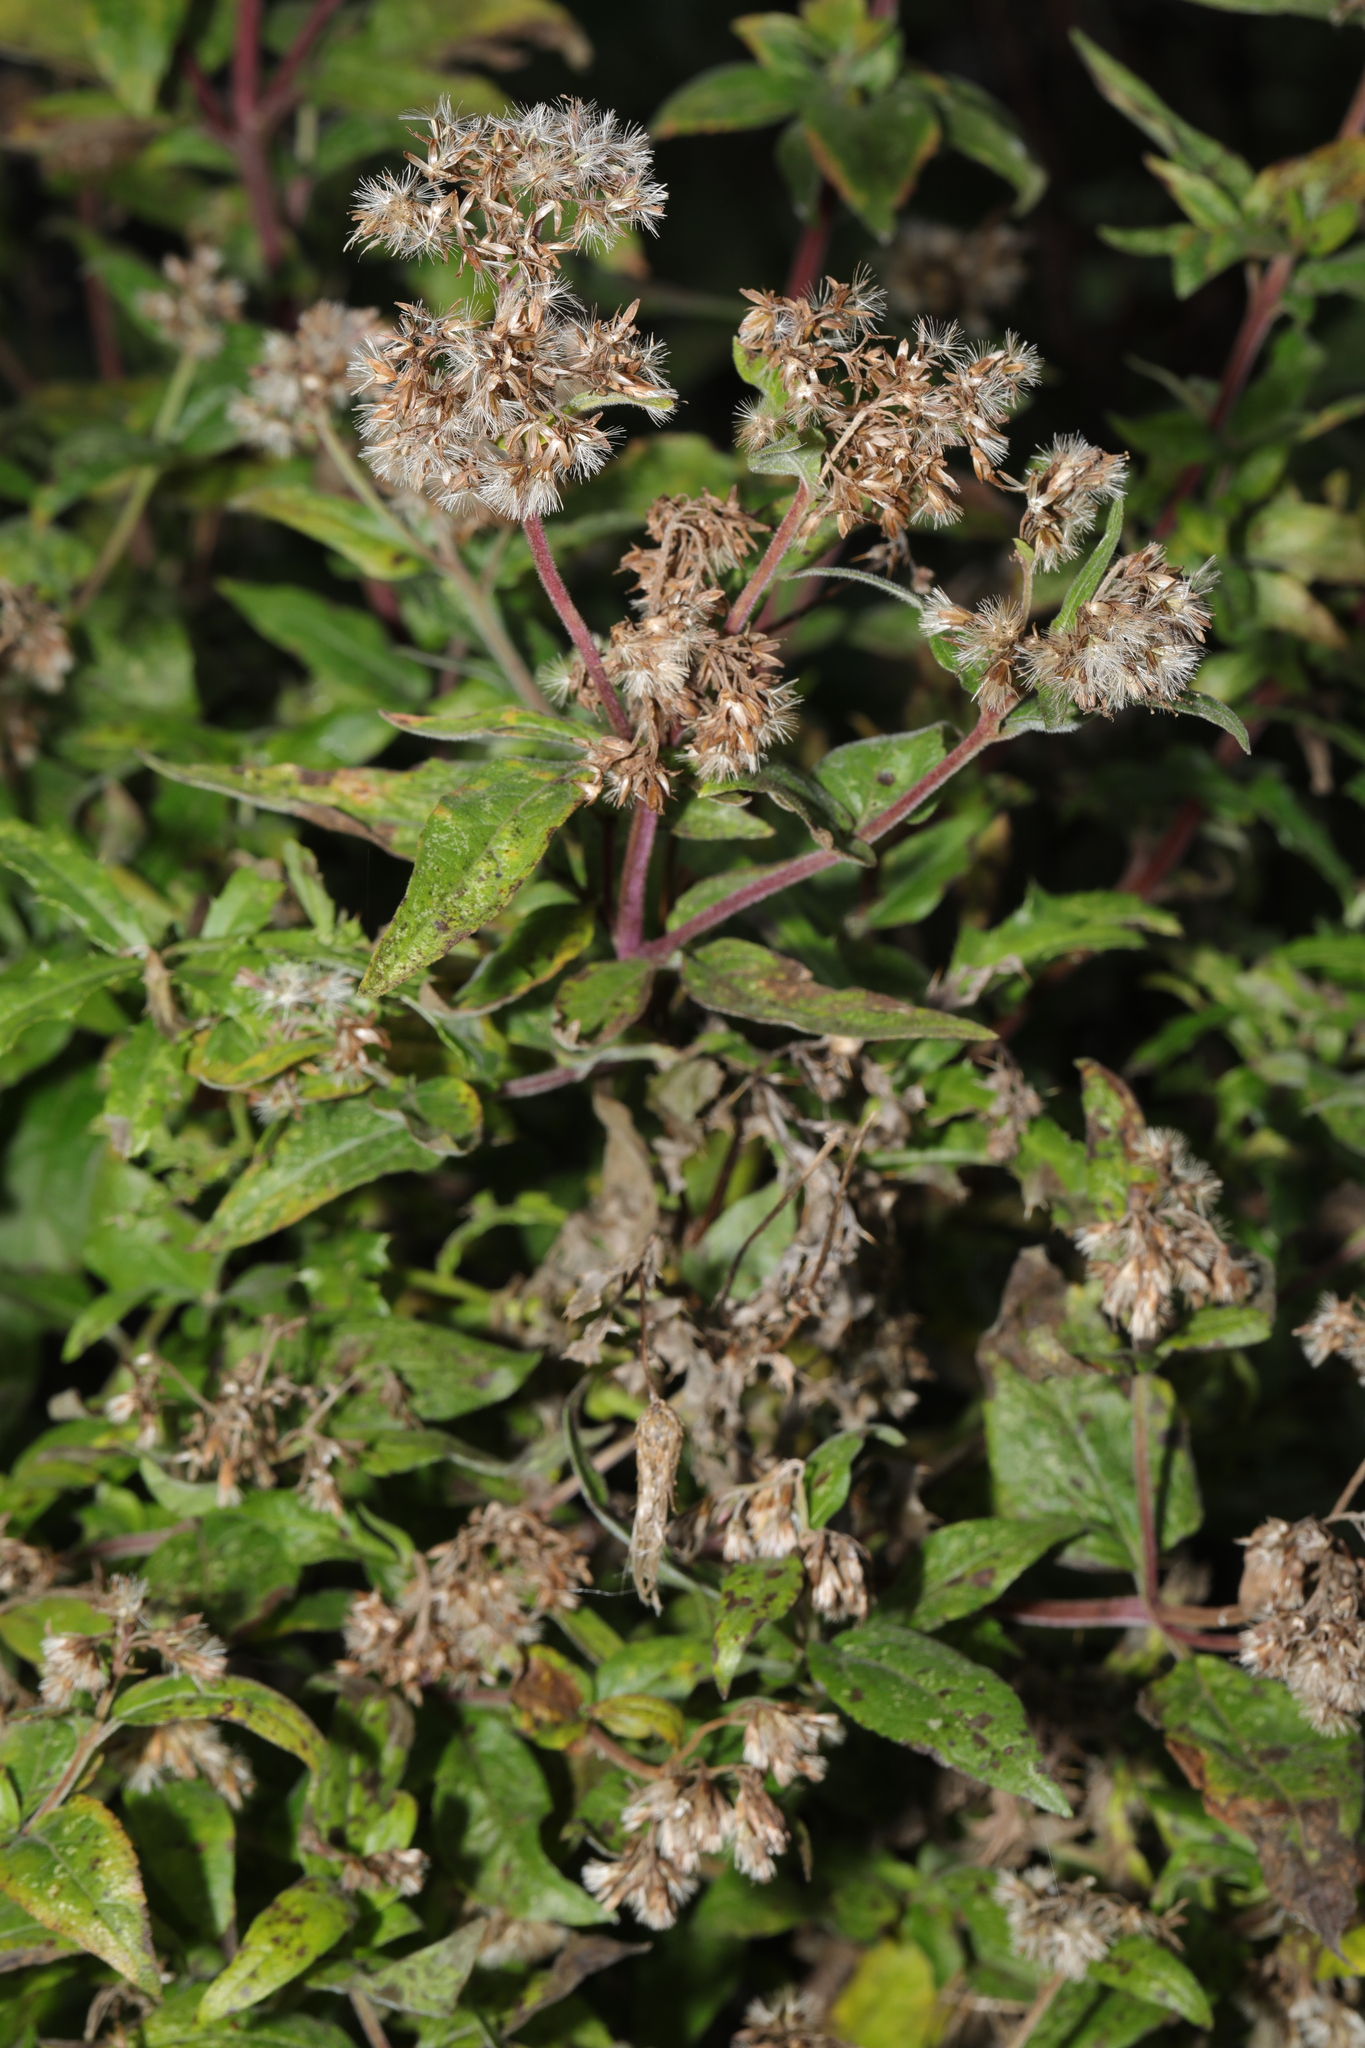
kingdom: Plantae
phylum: Tracheophyta
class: Magnoliopsida
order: Asterales
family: Asteraceae
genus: Eupatorium
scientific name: Eupatorium cannabinum
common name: Hemp-agrimony
